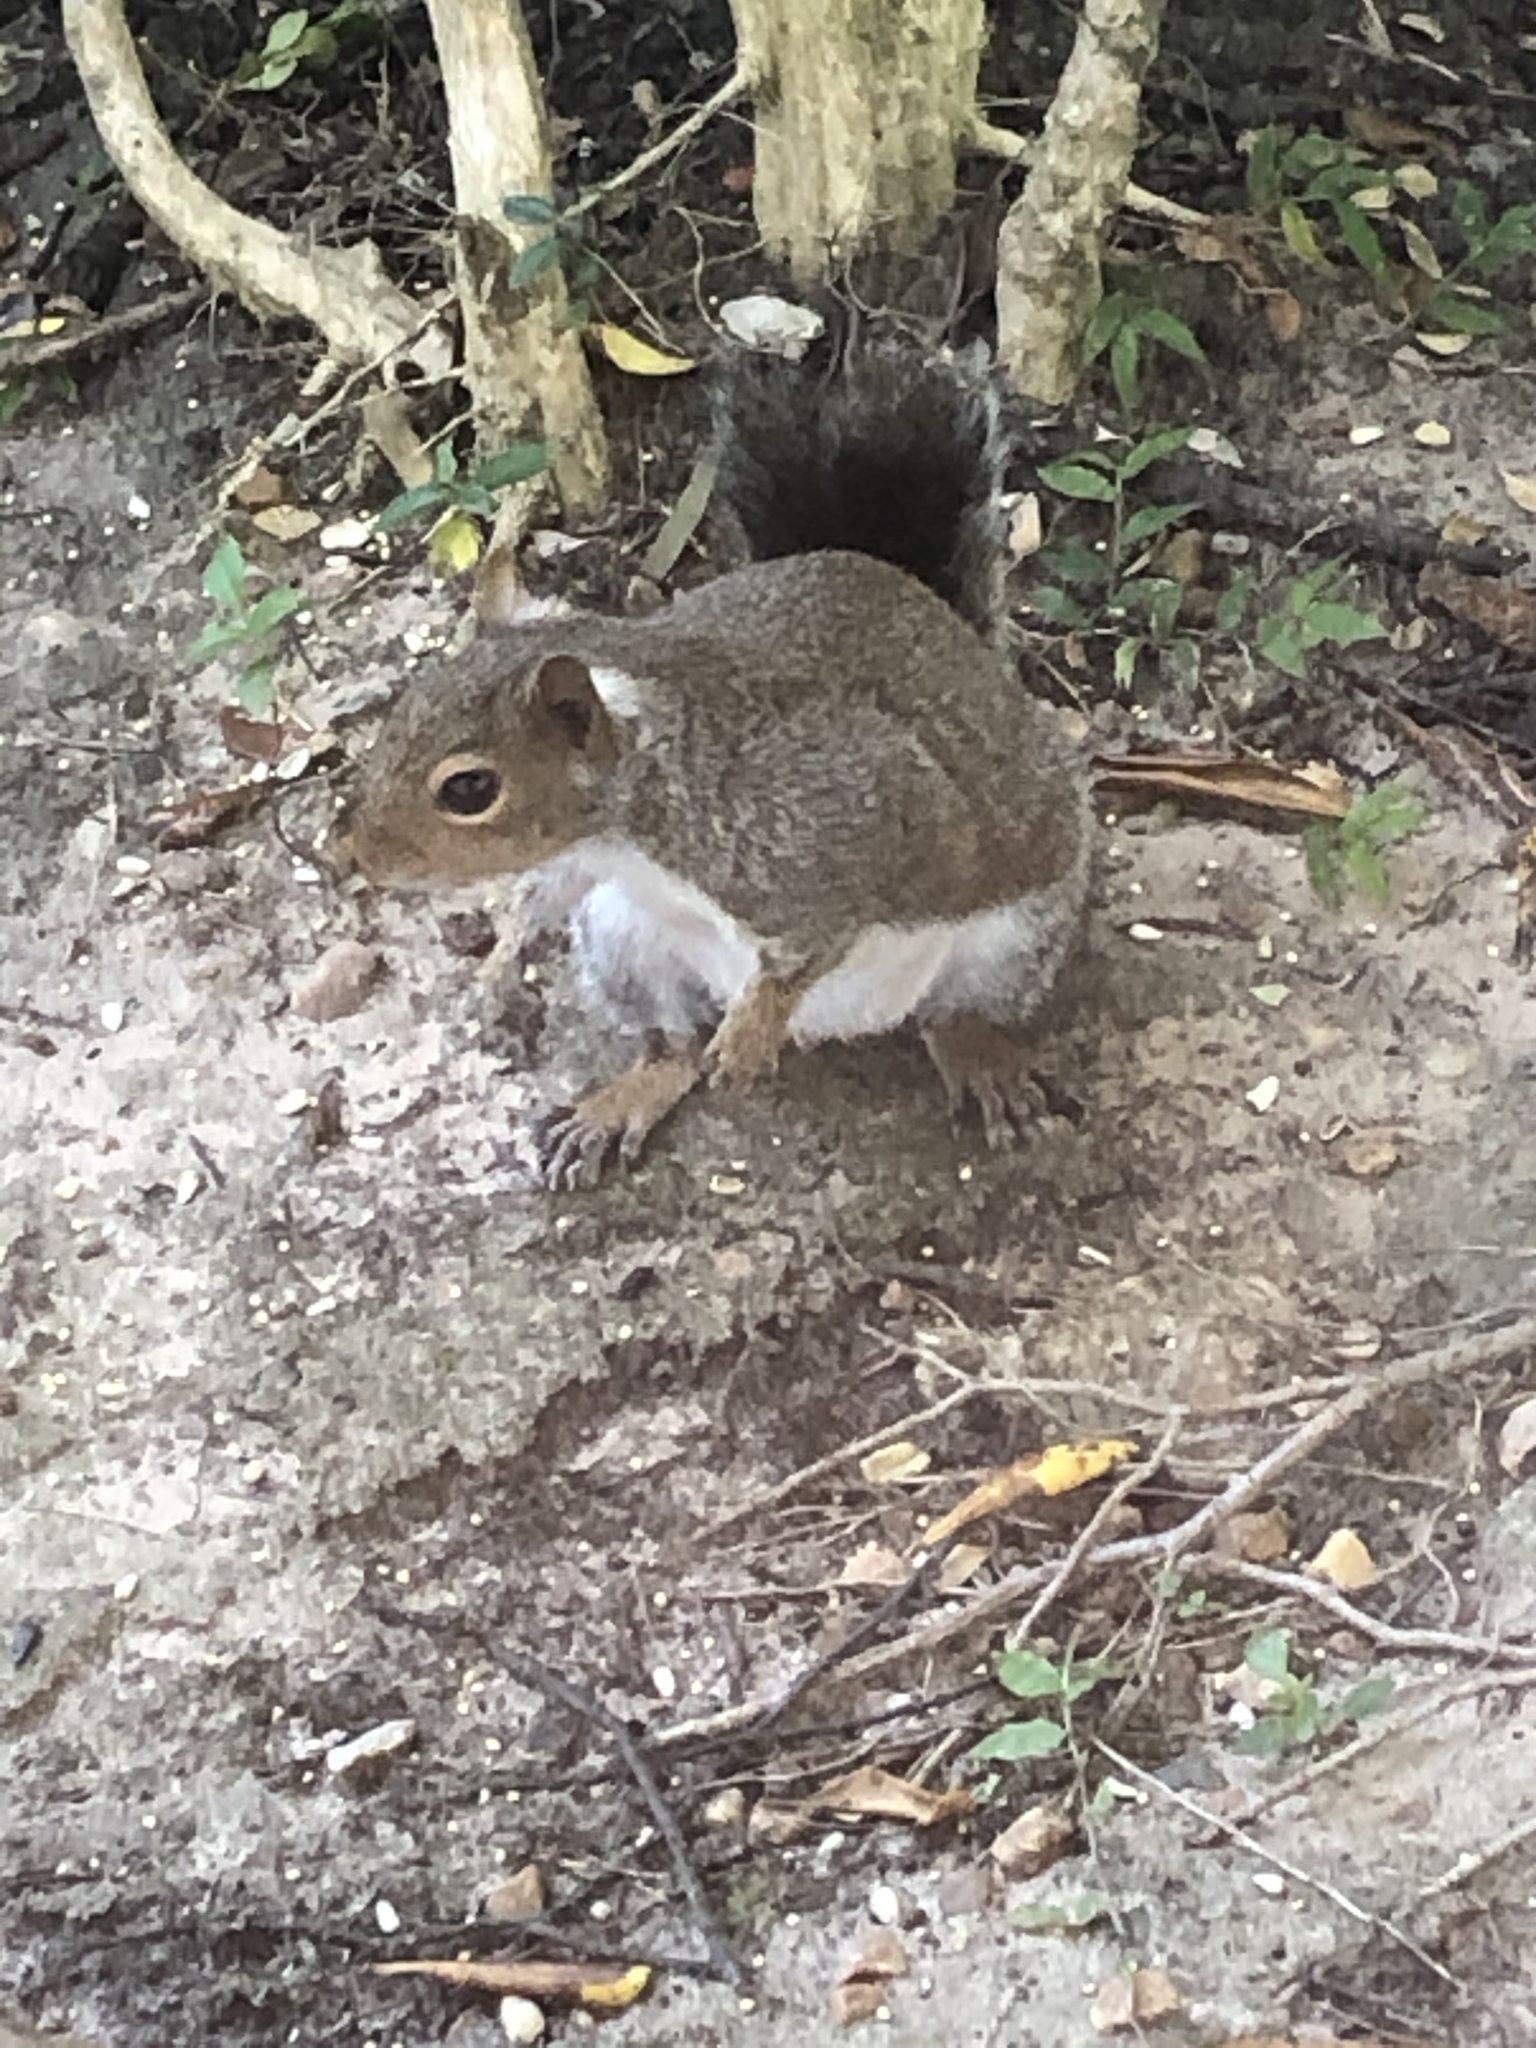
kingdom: Animalia
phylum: Chordata
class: Mammalia
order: Rodentia
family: Sciuridae
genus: Sciurus
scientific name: Sciurus carolinensis
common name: Eastern gray squirrel
